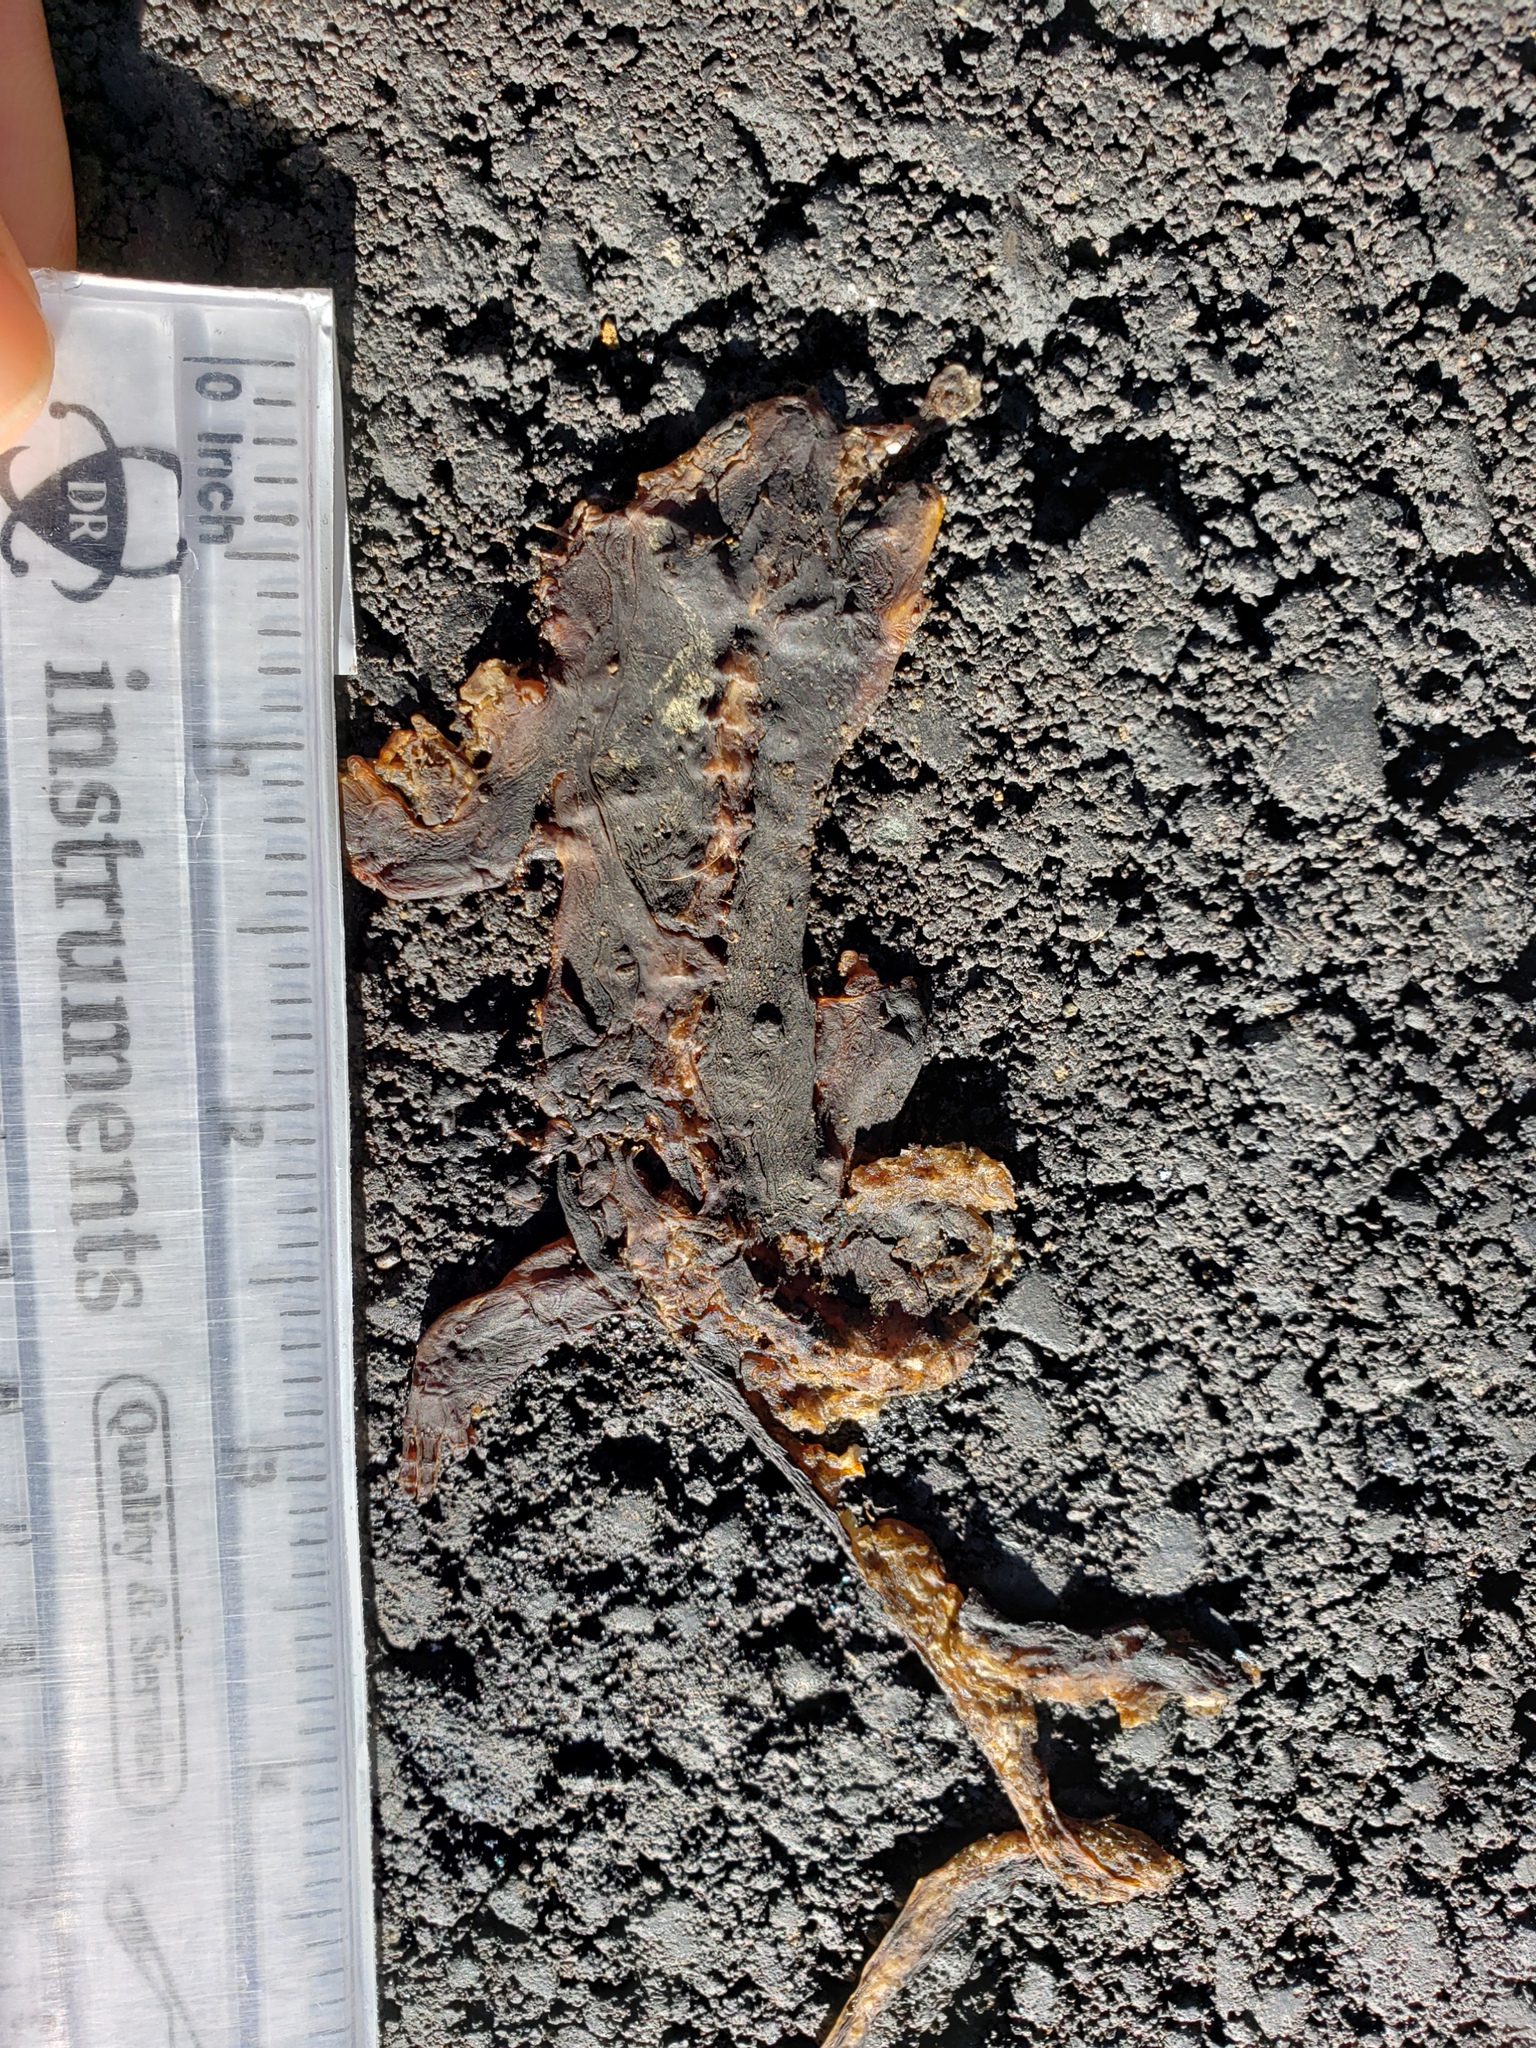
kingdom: Animalia
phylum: Chordata
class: Amphibia
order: Caudata
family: Salamandridae
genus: Taricha
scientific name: Taricha
